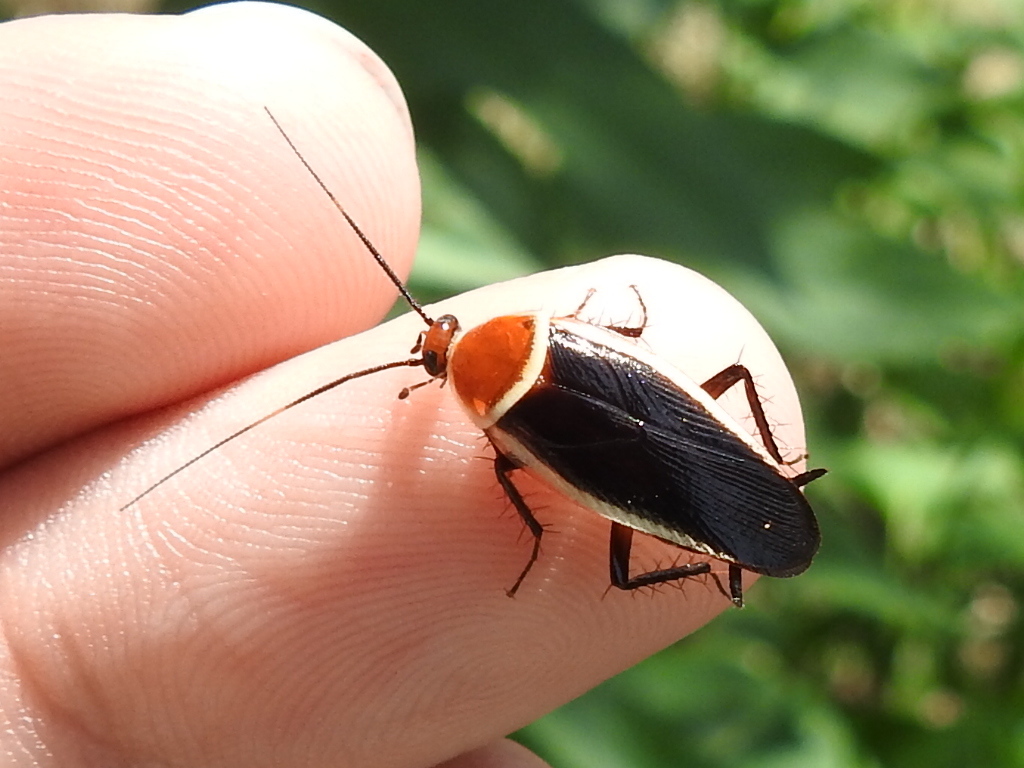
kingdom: Animalia
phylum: Arthropoda
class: Insecta
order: Blattodea
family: Ectobiidae
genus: Pseudomops
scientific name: Pseudomops septentrionalis
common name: Pale-bordered field cockroach
